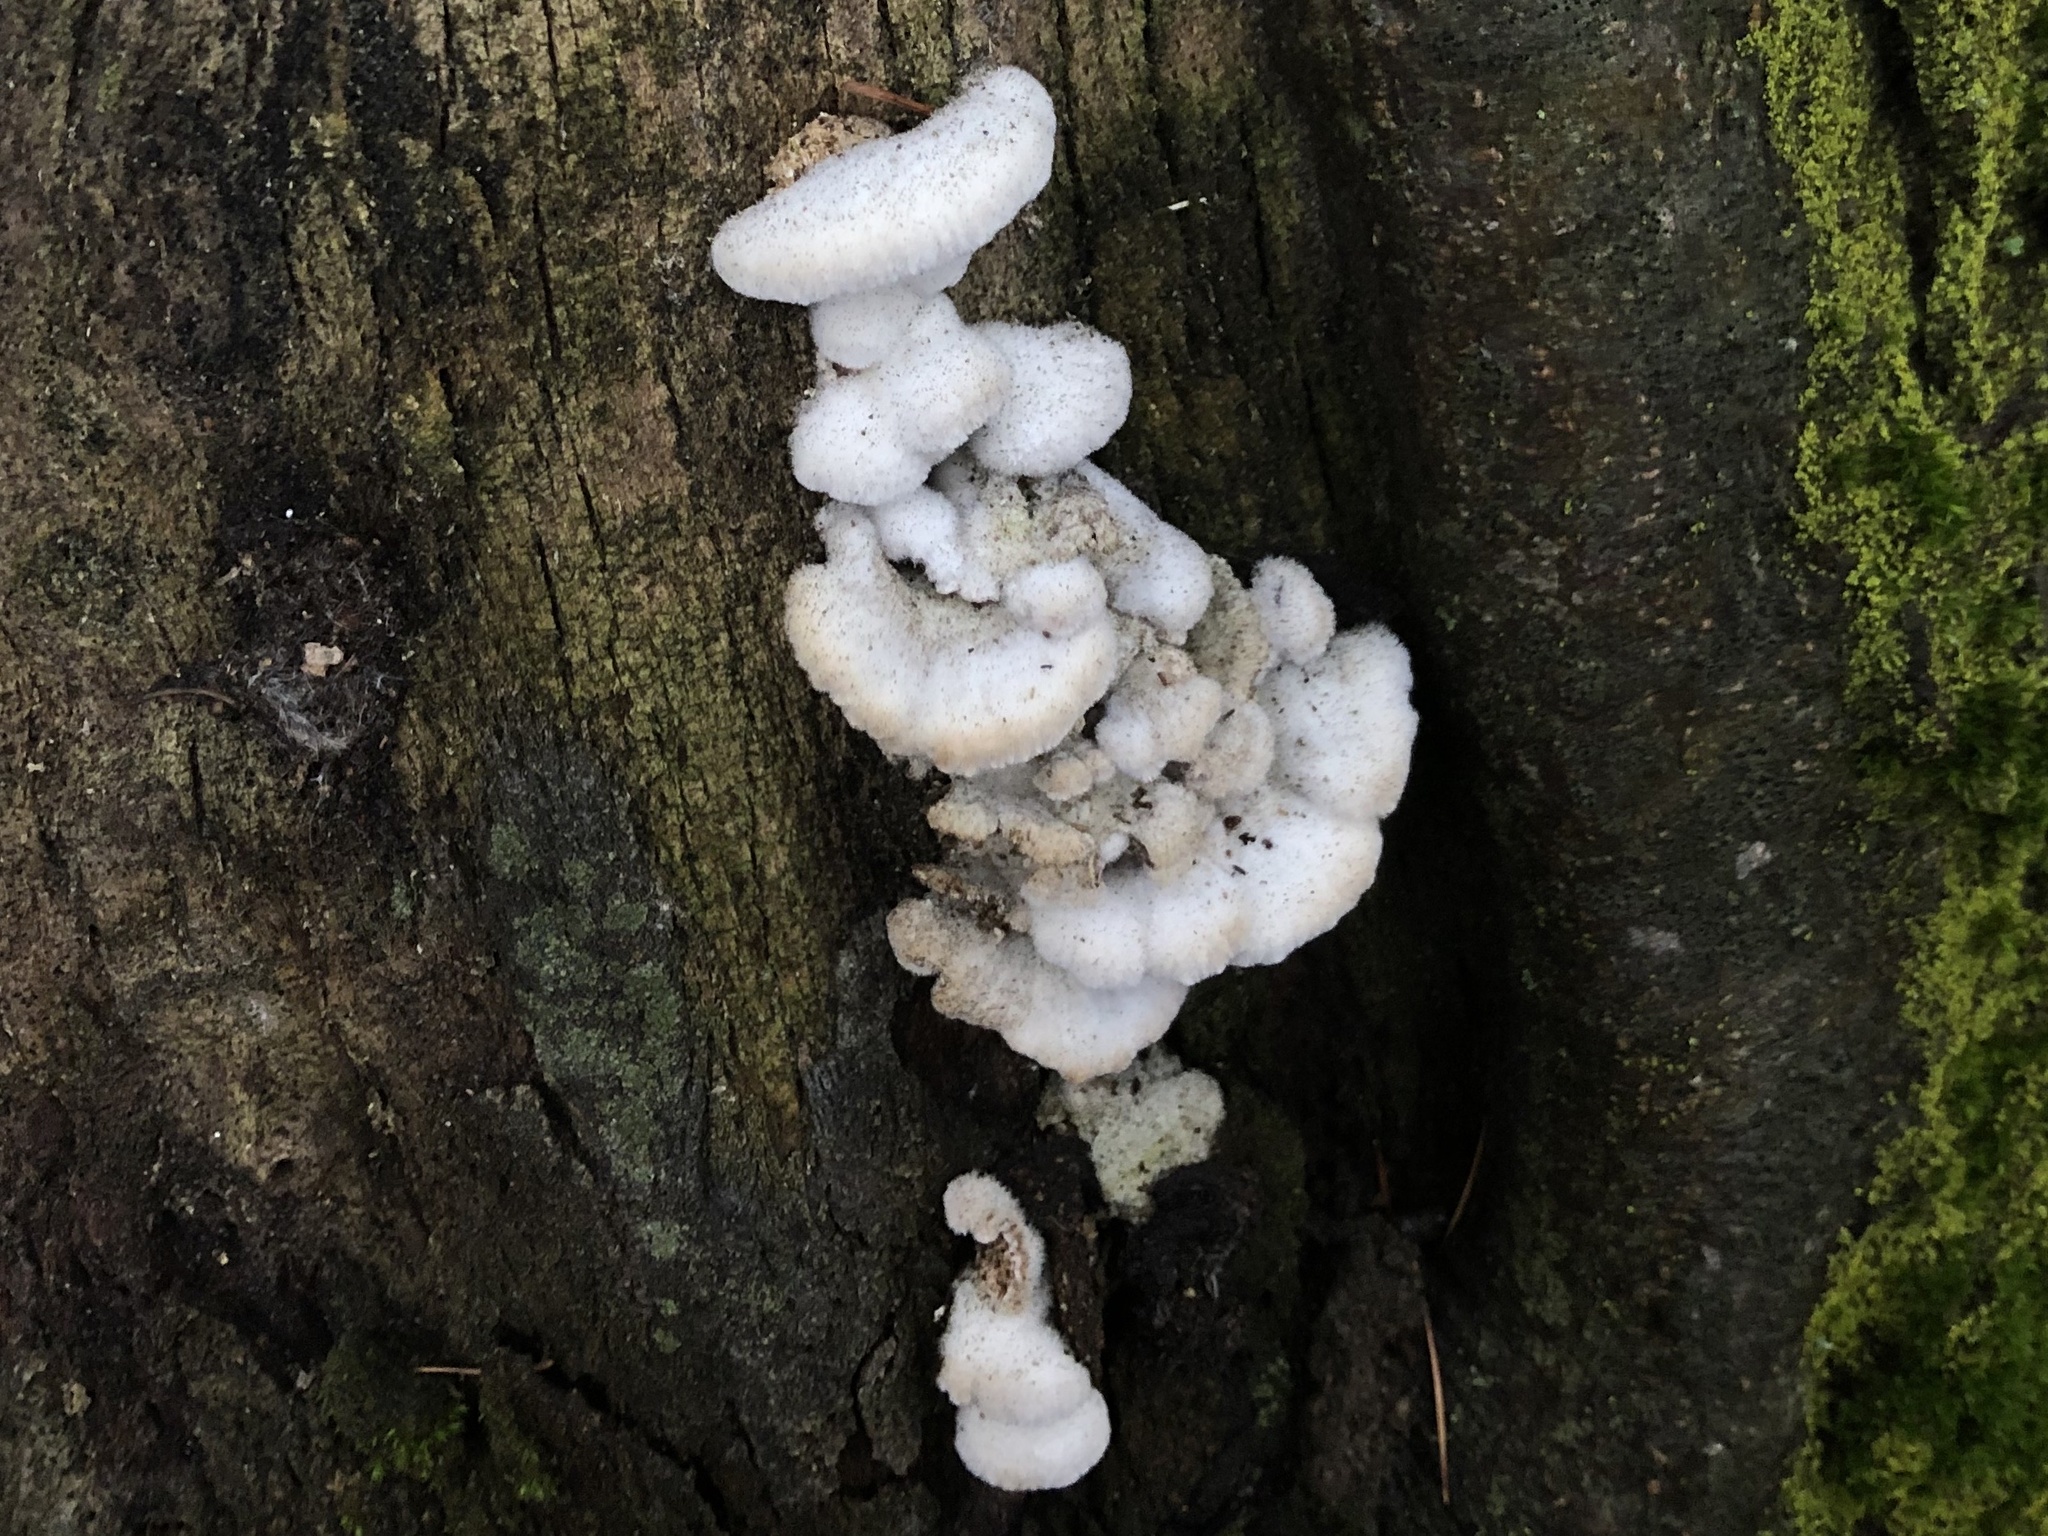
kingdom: Fungi
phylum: Basidiomycota
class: Agaricomycetes
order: Agaricales
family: Schizophyllaceae
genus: Schizophyllum
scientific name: Schizophyllum commune
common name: Common porecrust
